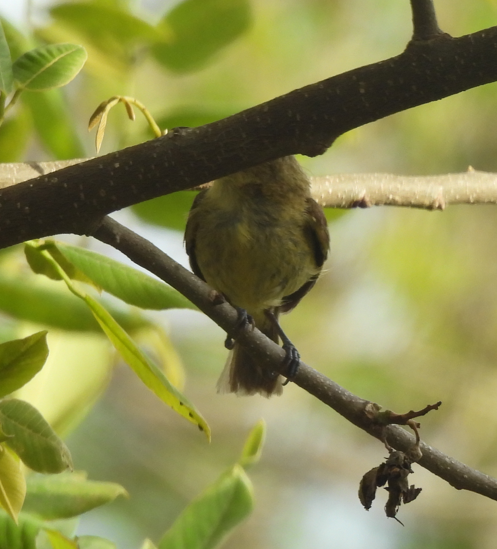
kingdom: Animalia
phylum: Chordata
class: Aves
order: Passeriformes
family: Vireonidae
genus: Vireo
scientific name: Vireo pallens
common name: Mangrove vireo
